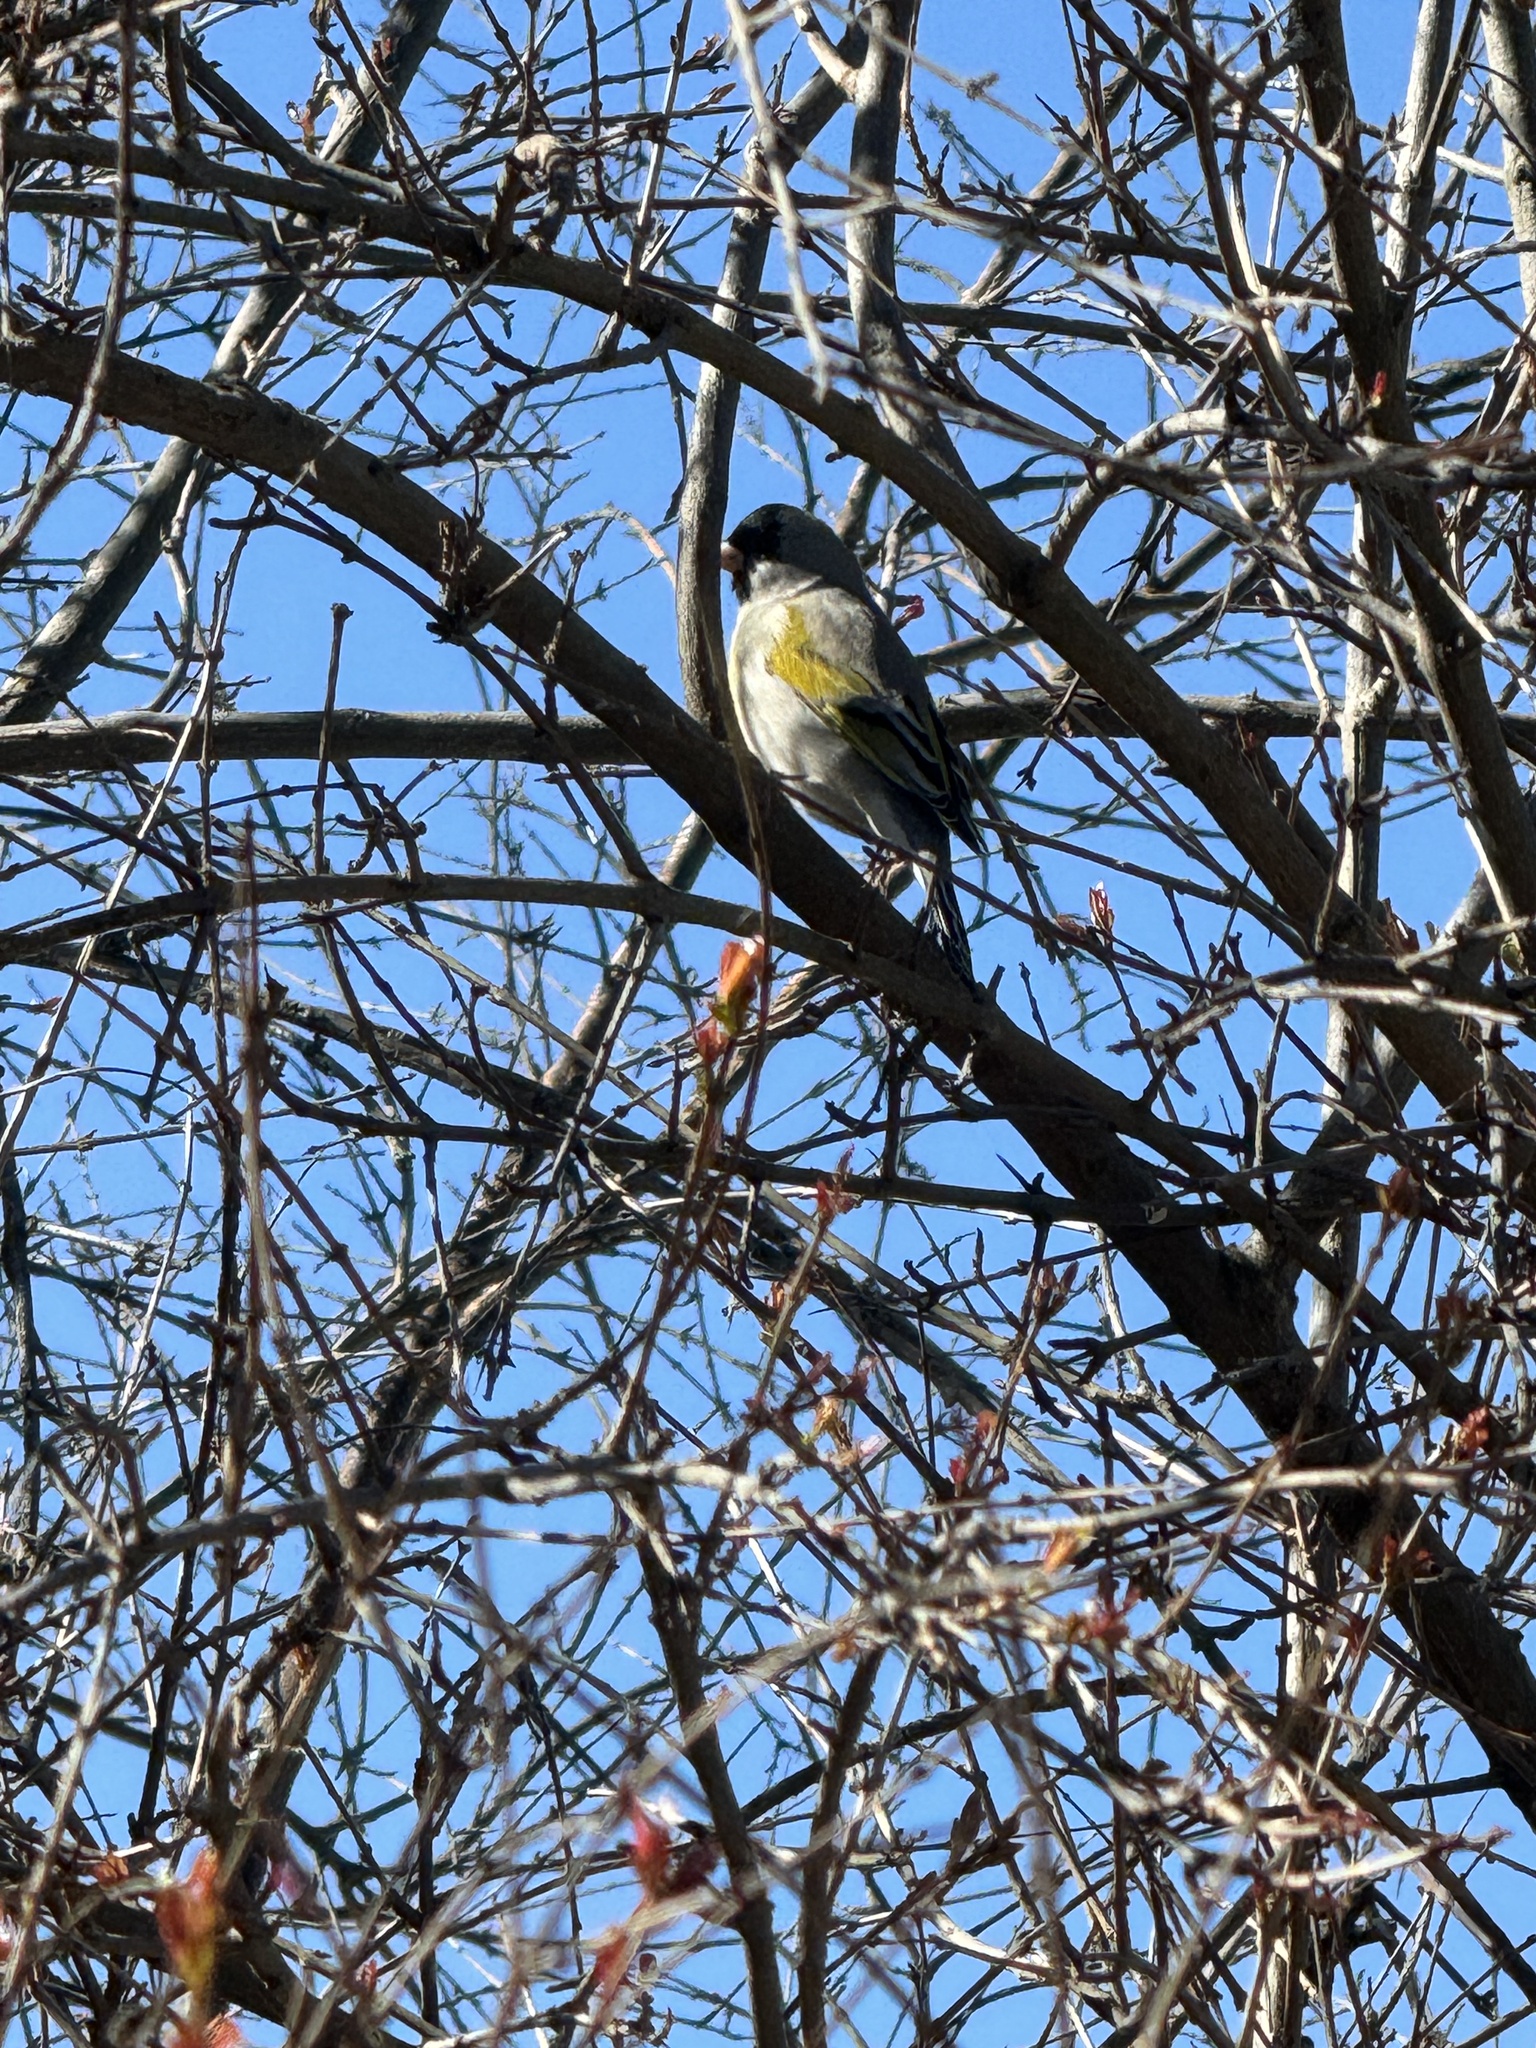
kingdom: Animalia
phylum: Chordata
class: Aves
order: Passeriformes
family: Fringillidae
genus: Spinus
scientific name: Spinus lawrencei
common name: Lawrence's goldfinch
